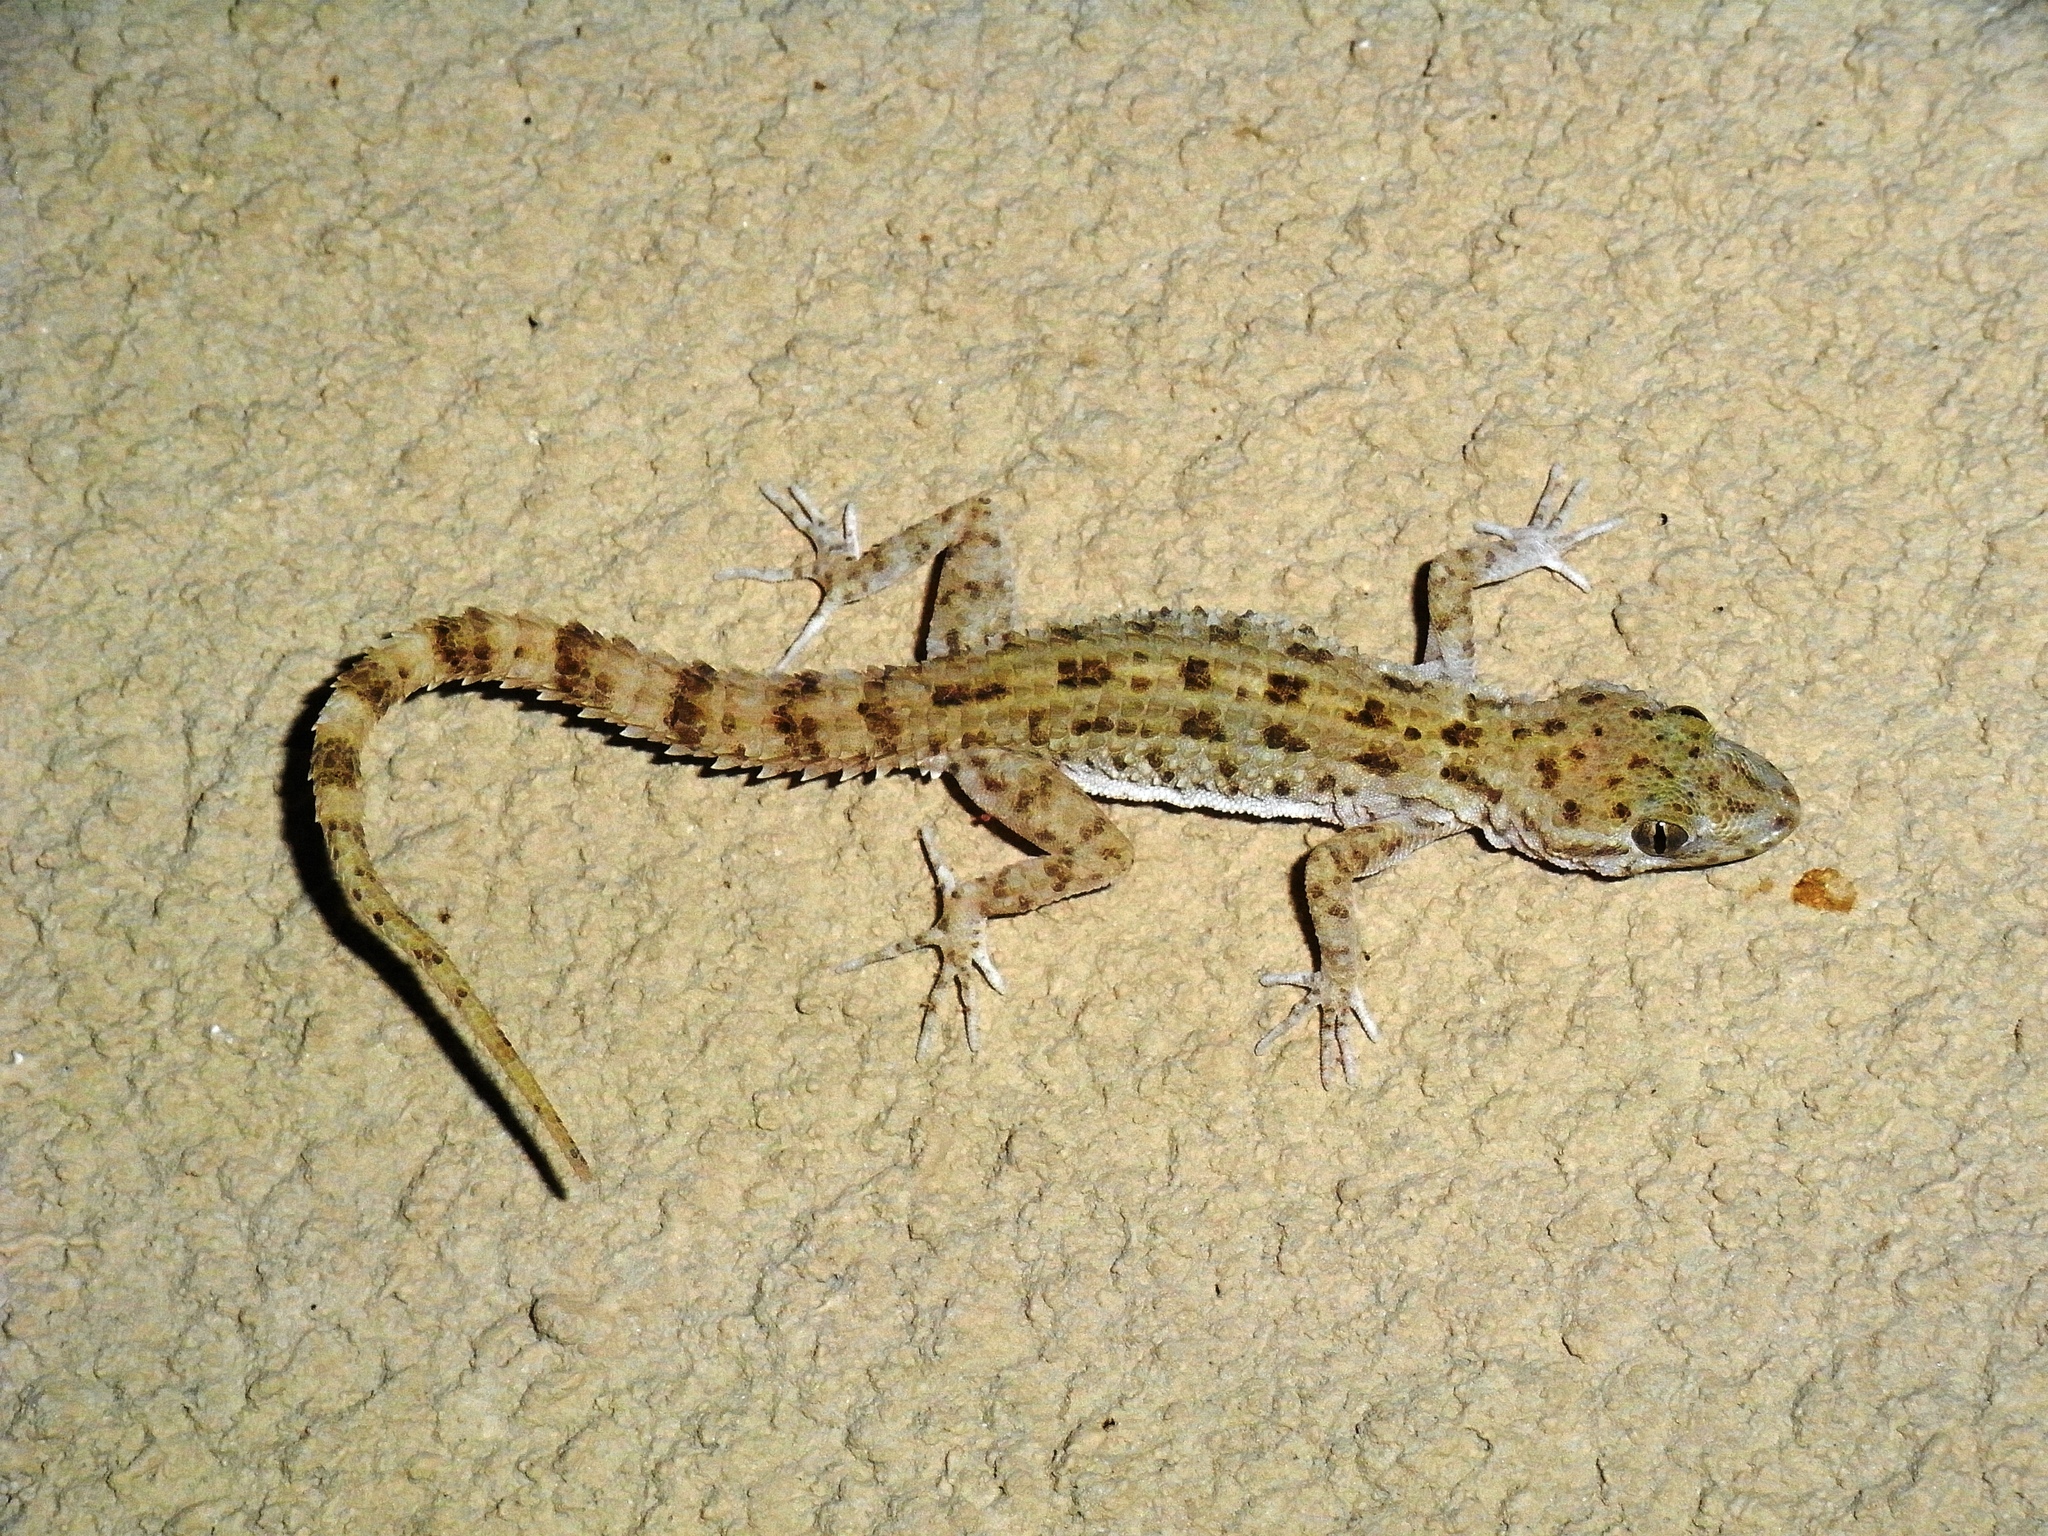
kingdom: Animalia
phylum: Chordata
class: Squamata
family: Gekkonidae
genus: Cyrtopodion
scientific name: Cyrtopodion scabrum
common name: Rough-tailed gecko
